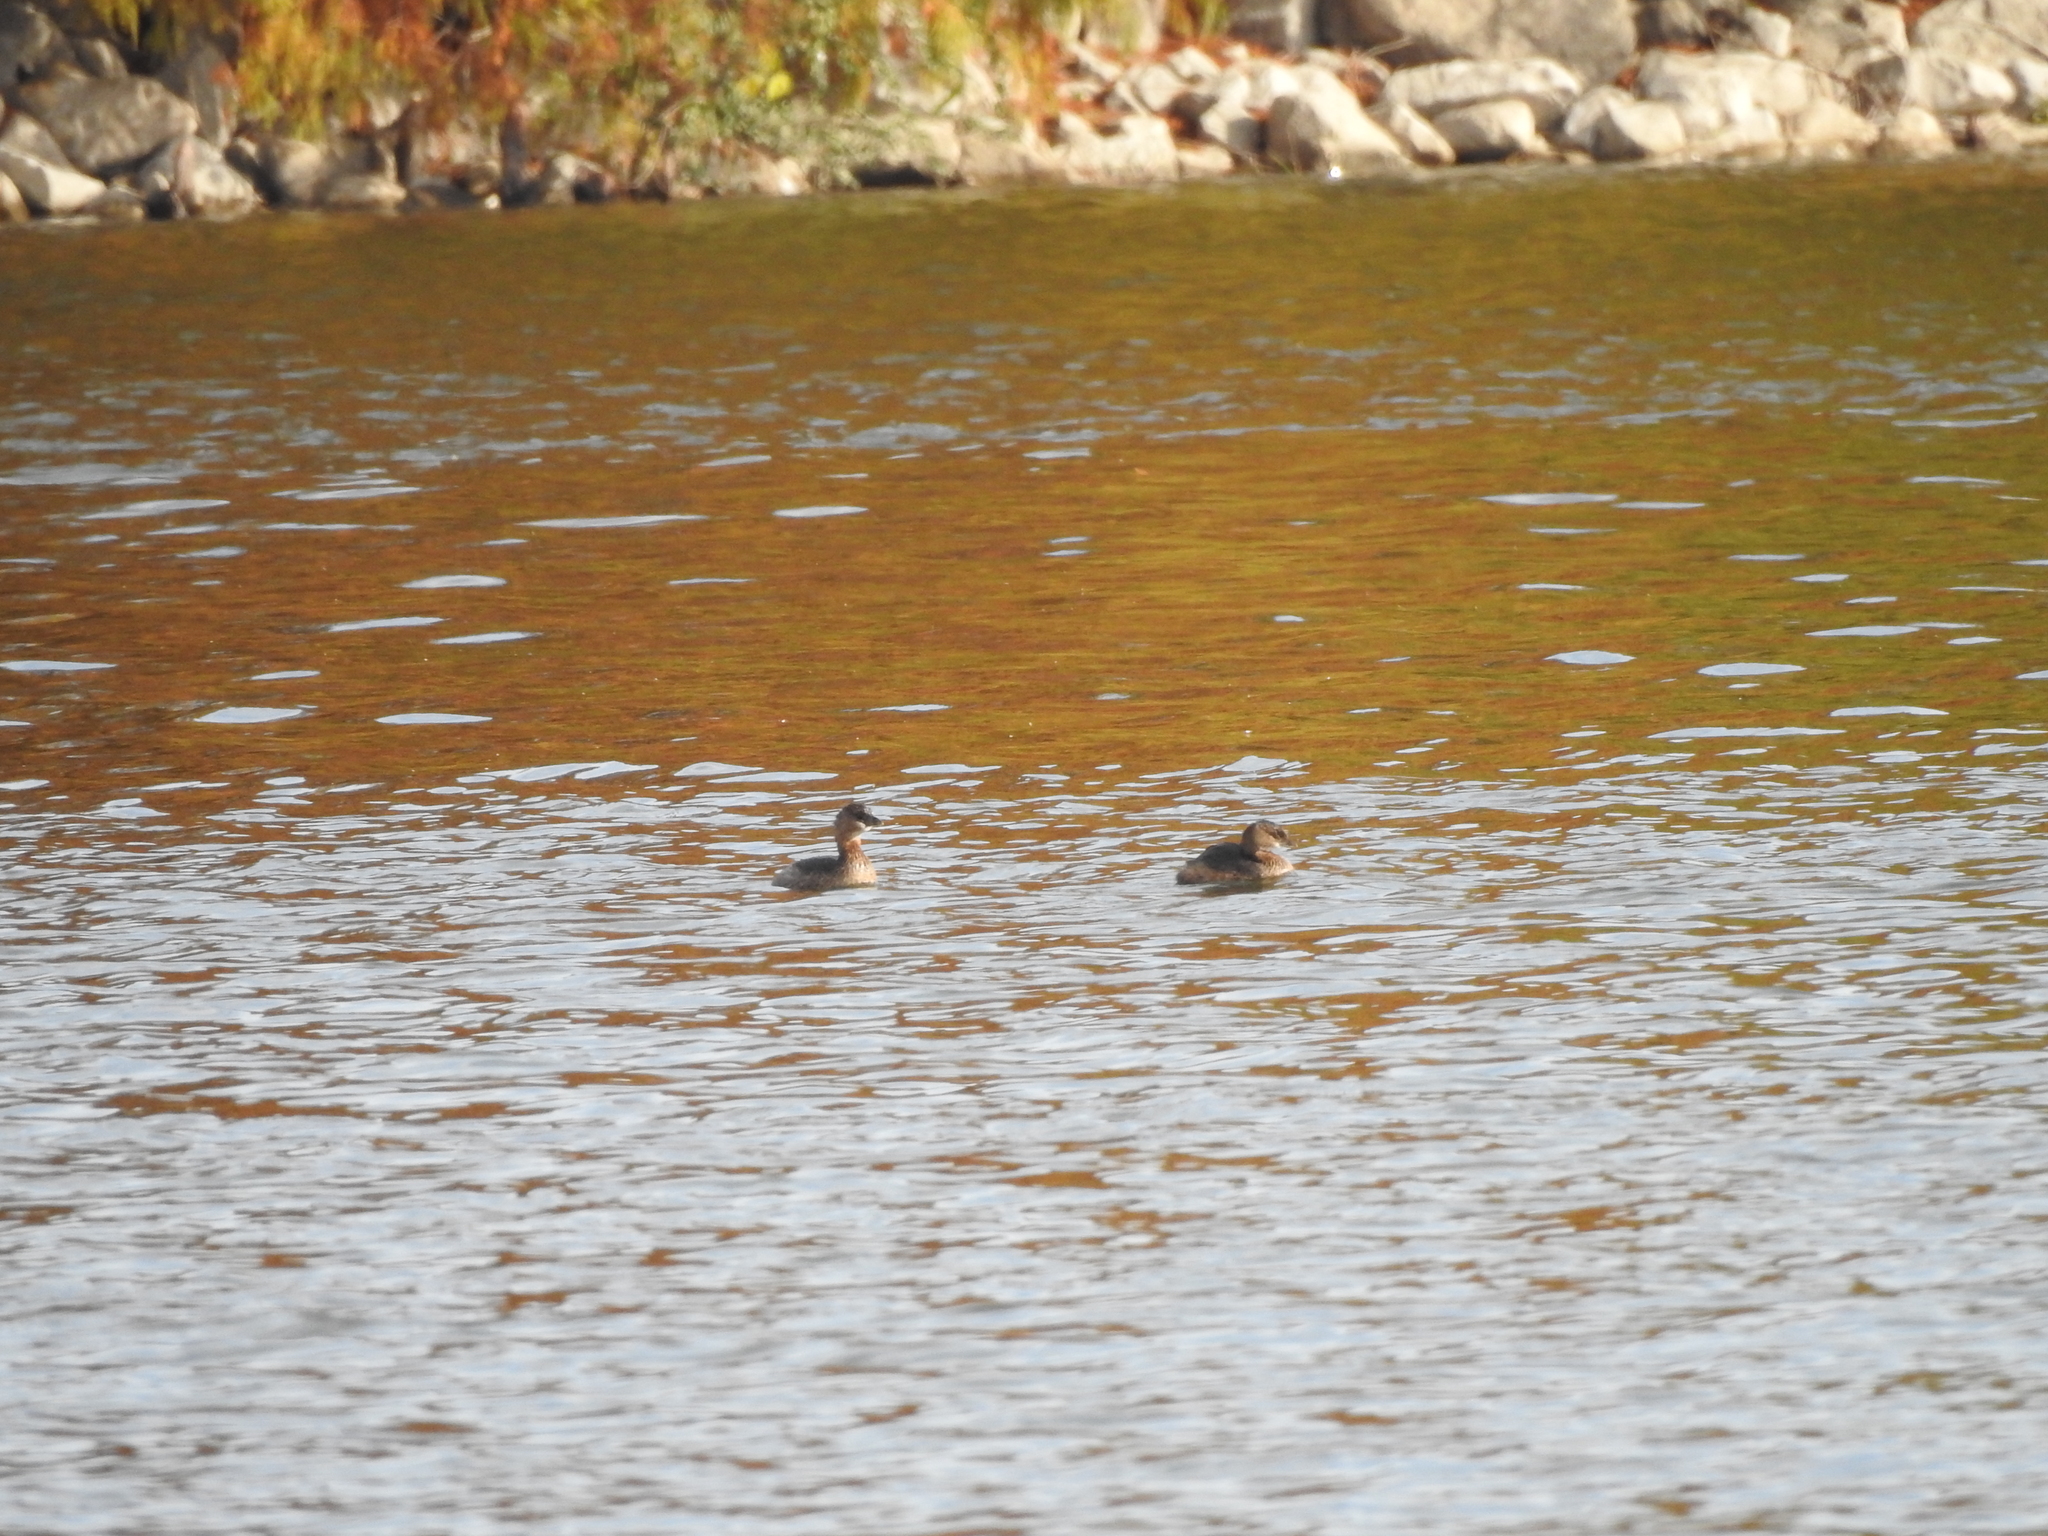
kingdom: Animalia
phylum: Chordata
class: Aves
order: Podicipediformes
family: Podicipedidae
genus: Podilymbus
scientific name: Podilymbus podiceps
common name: Pied-billed grebe
